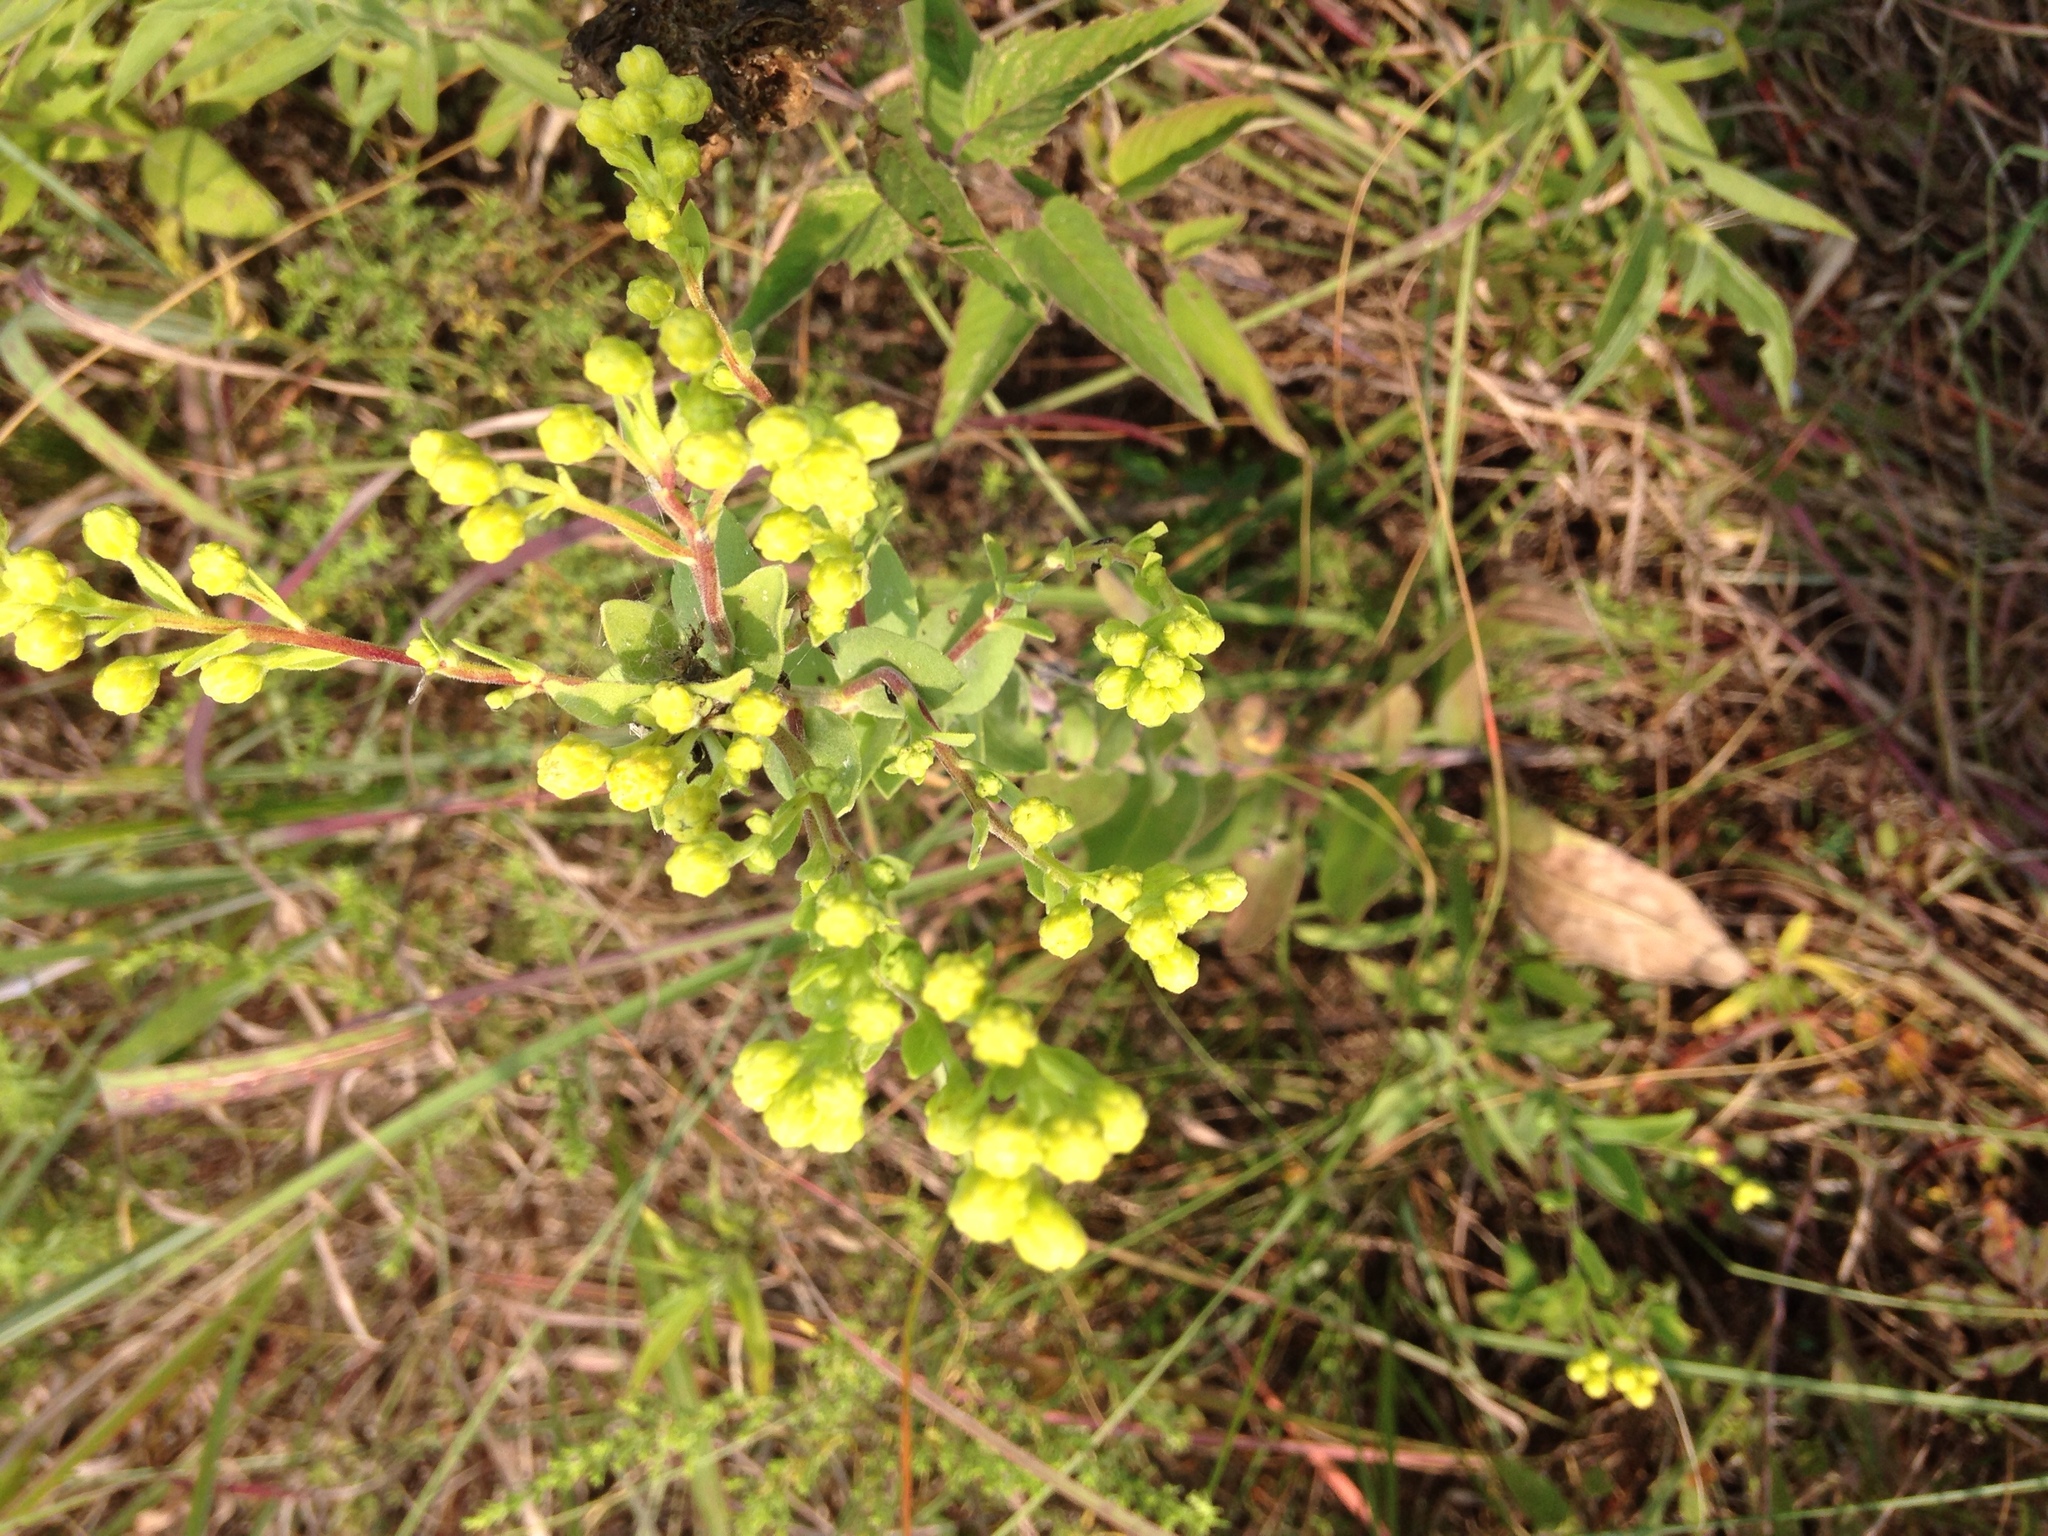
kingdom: Plantae
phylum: Tracheophyta
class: Magnoliopsida
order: Asterales
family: Asteraceae
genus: Solidago
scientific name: Solidago rigida
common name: Rigid goldenrod
